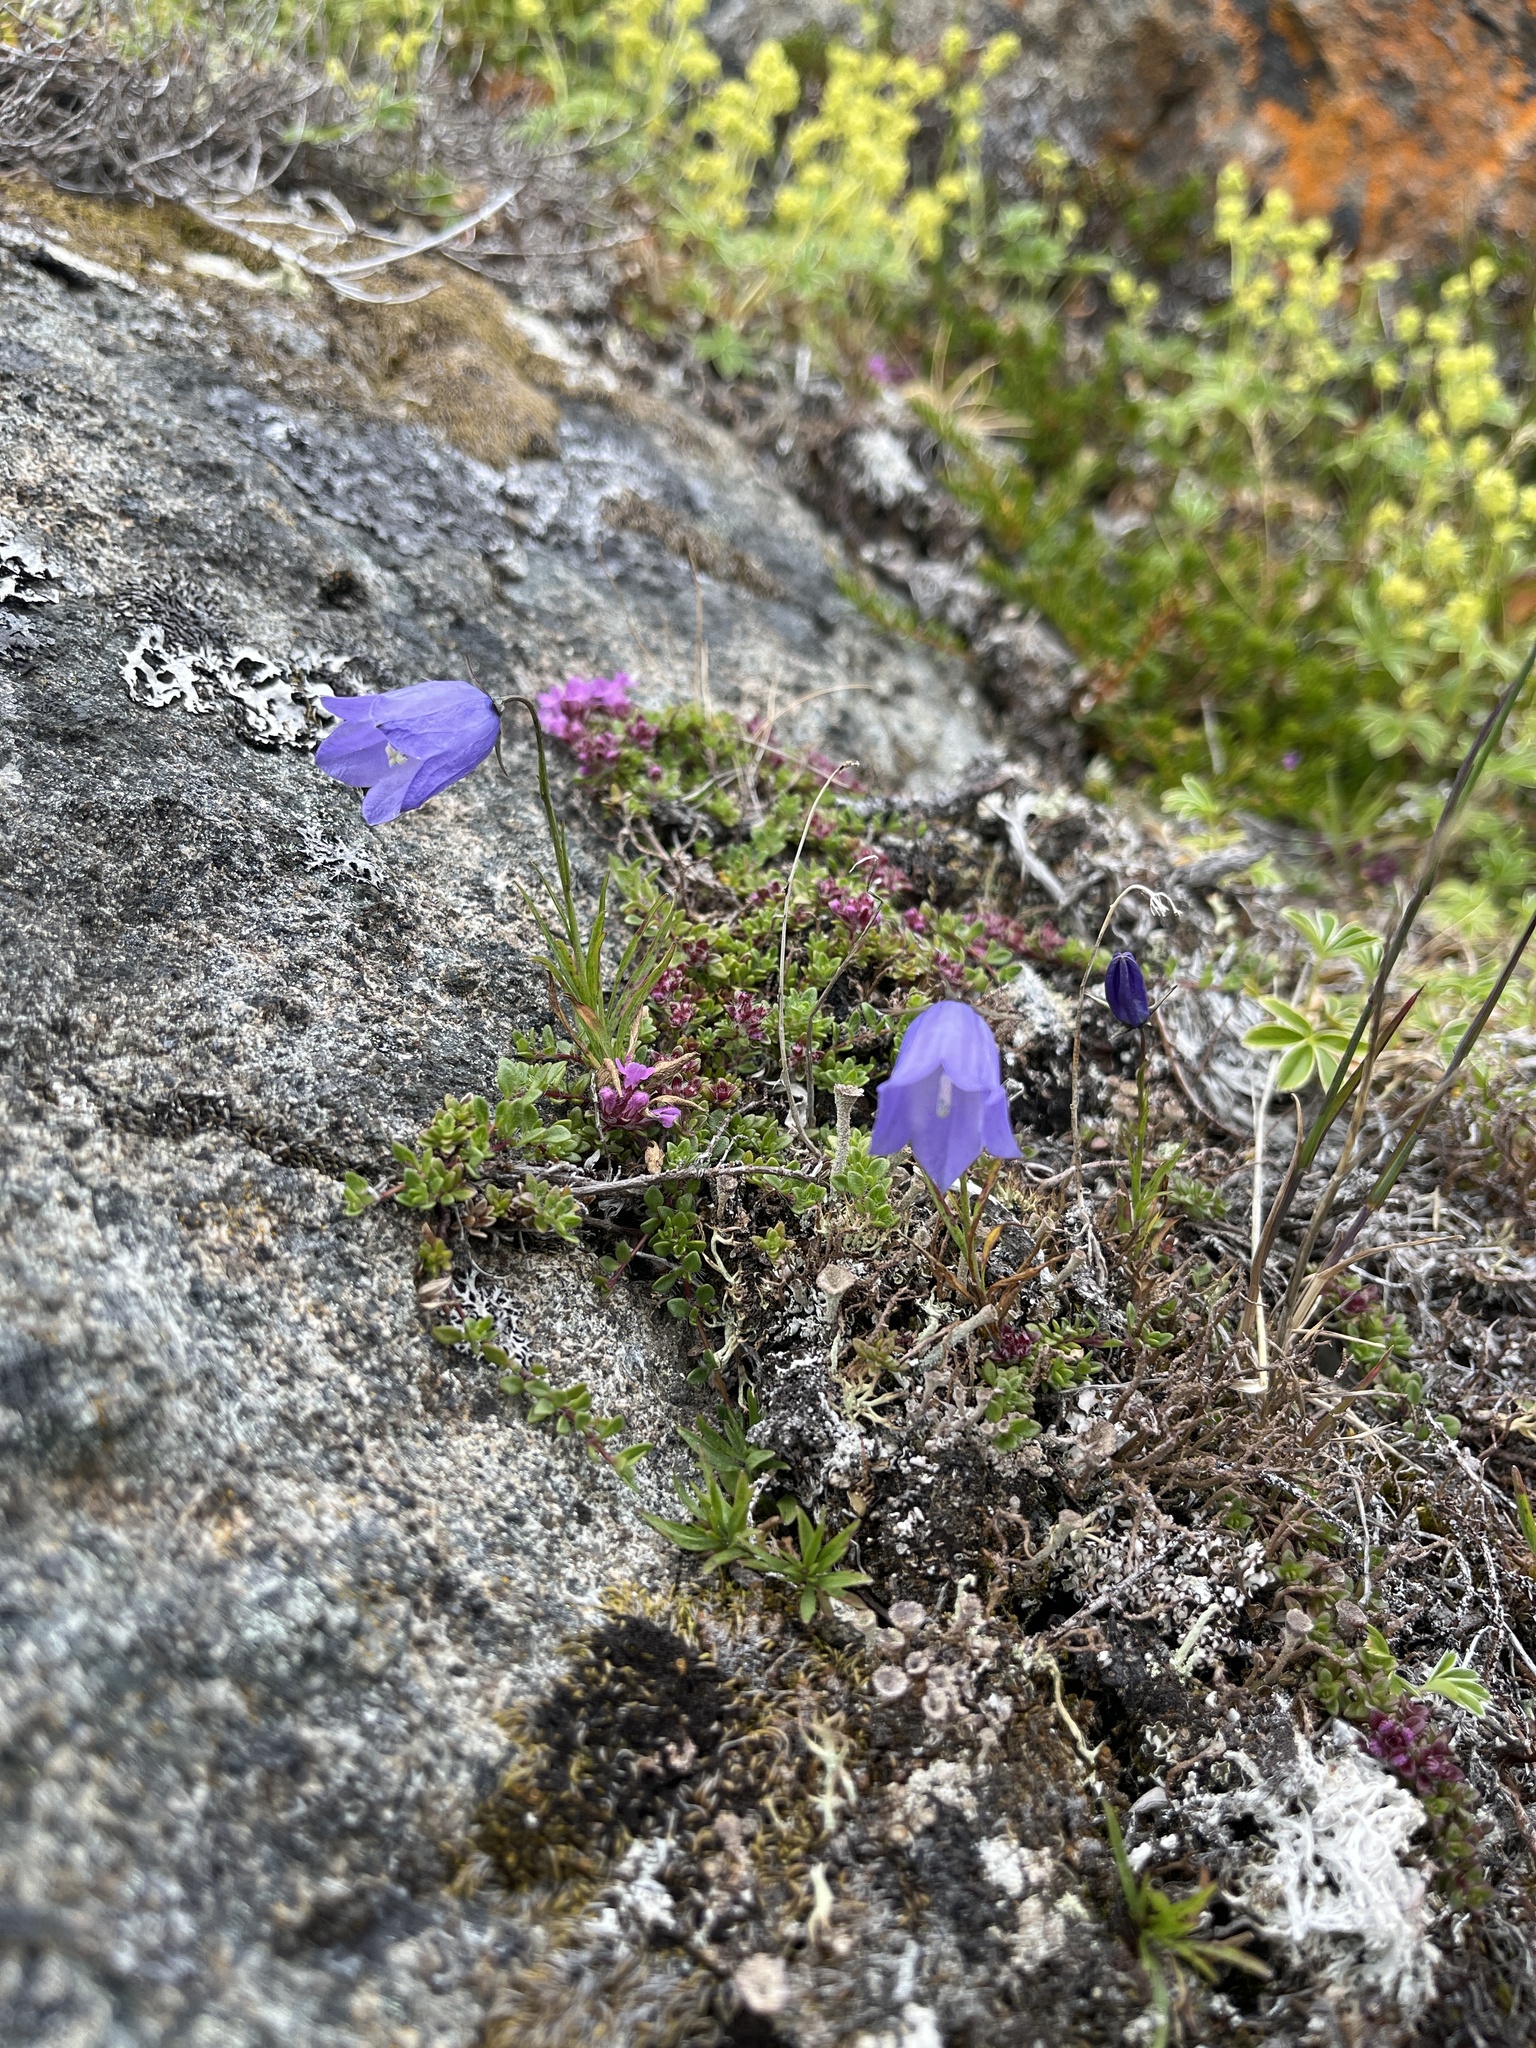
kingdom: Plantae
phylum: Tracheophyta
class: Magnoliopsida
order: Asterales
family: Campanulaceae
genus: Campanula
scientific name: Campanula giesekiana
